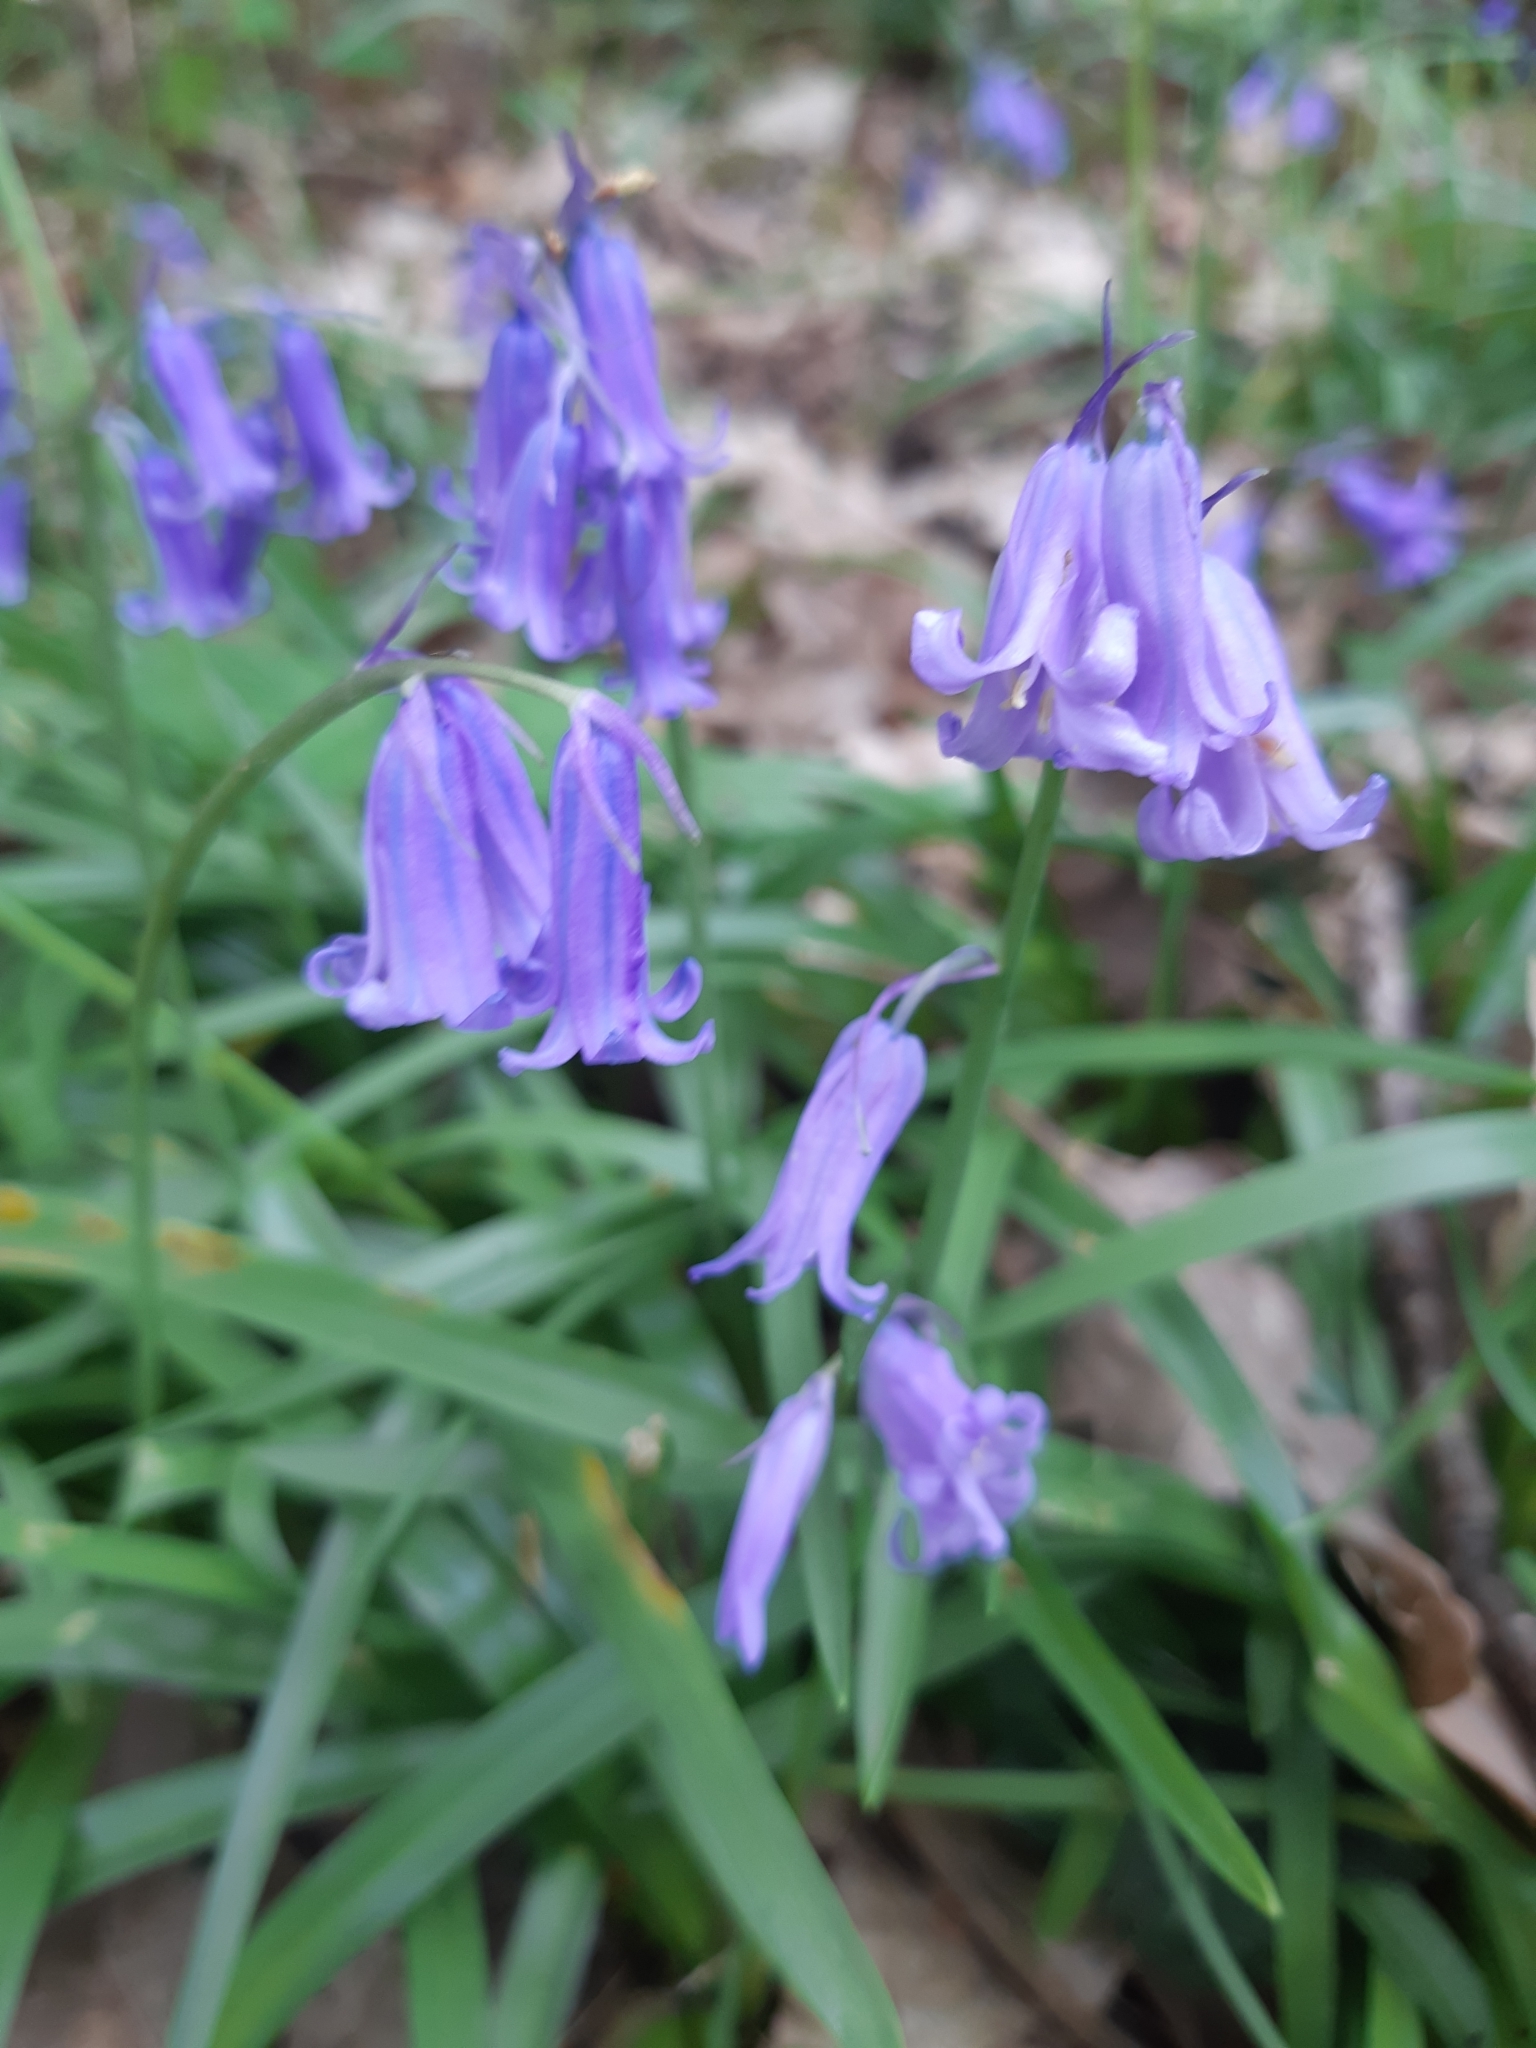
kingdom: Plantae
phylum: Tracheophyta
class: Liliopsida
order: Asparagales
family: Asparagaceae
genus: Hyacinthoides
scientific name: Hyacinthoides non-scripta
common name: Bluebell
